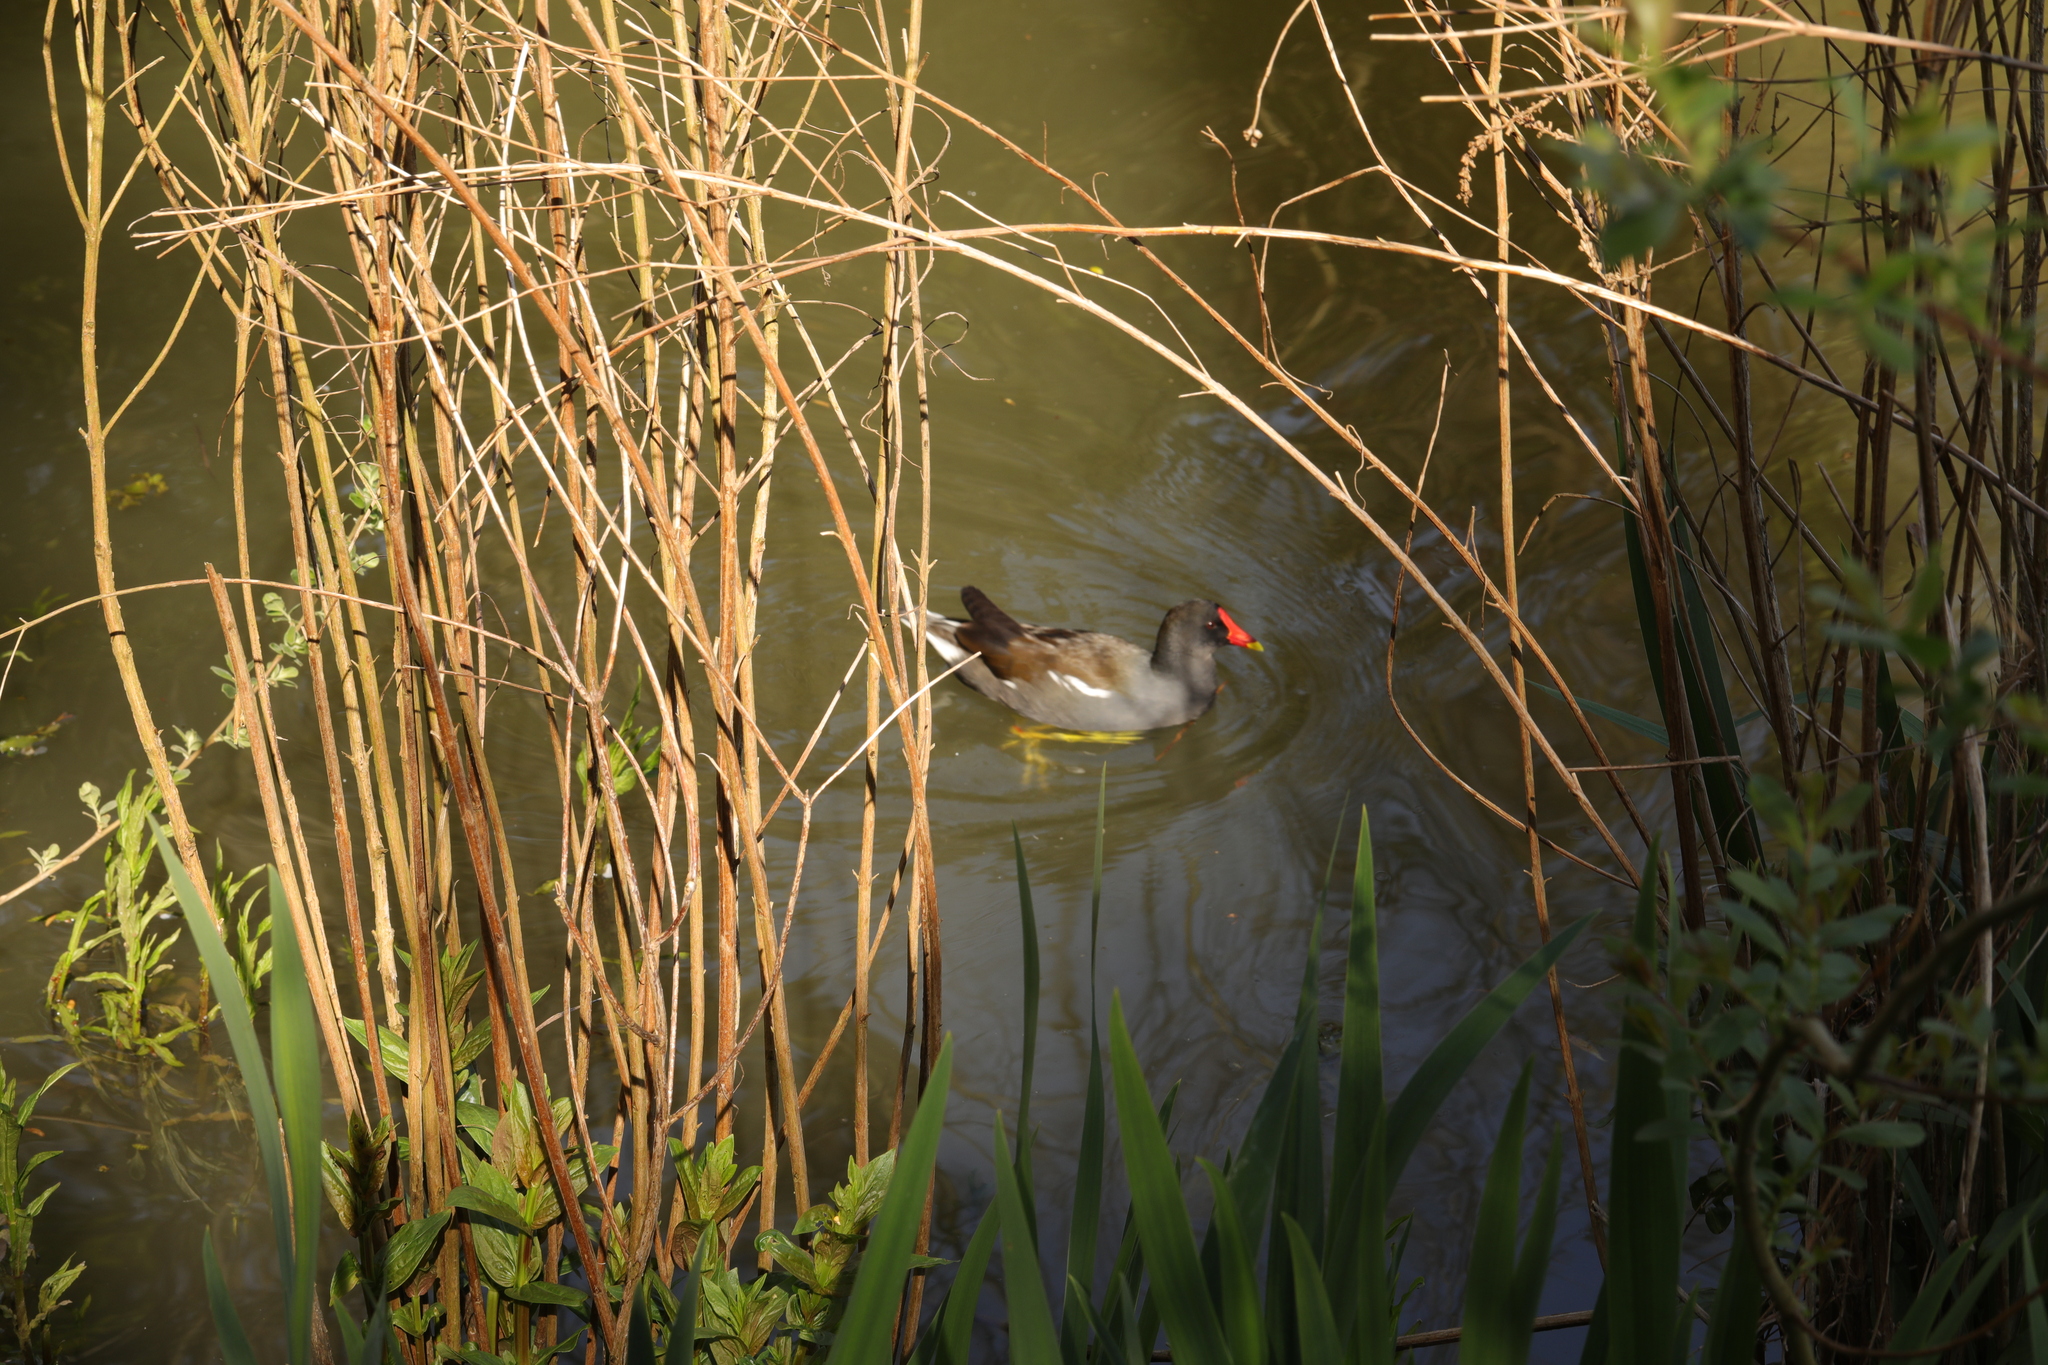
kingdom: Animalia
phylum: Chordata
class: Aves
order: Gruiformes
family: Rallidae
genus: Gallinula
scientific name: Gallinula chloropus
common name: Common moorhen
